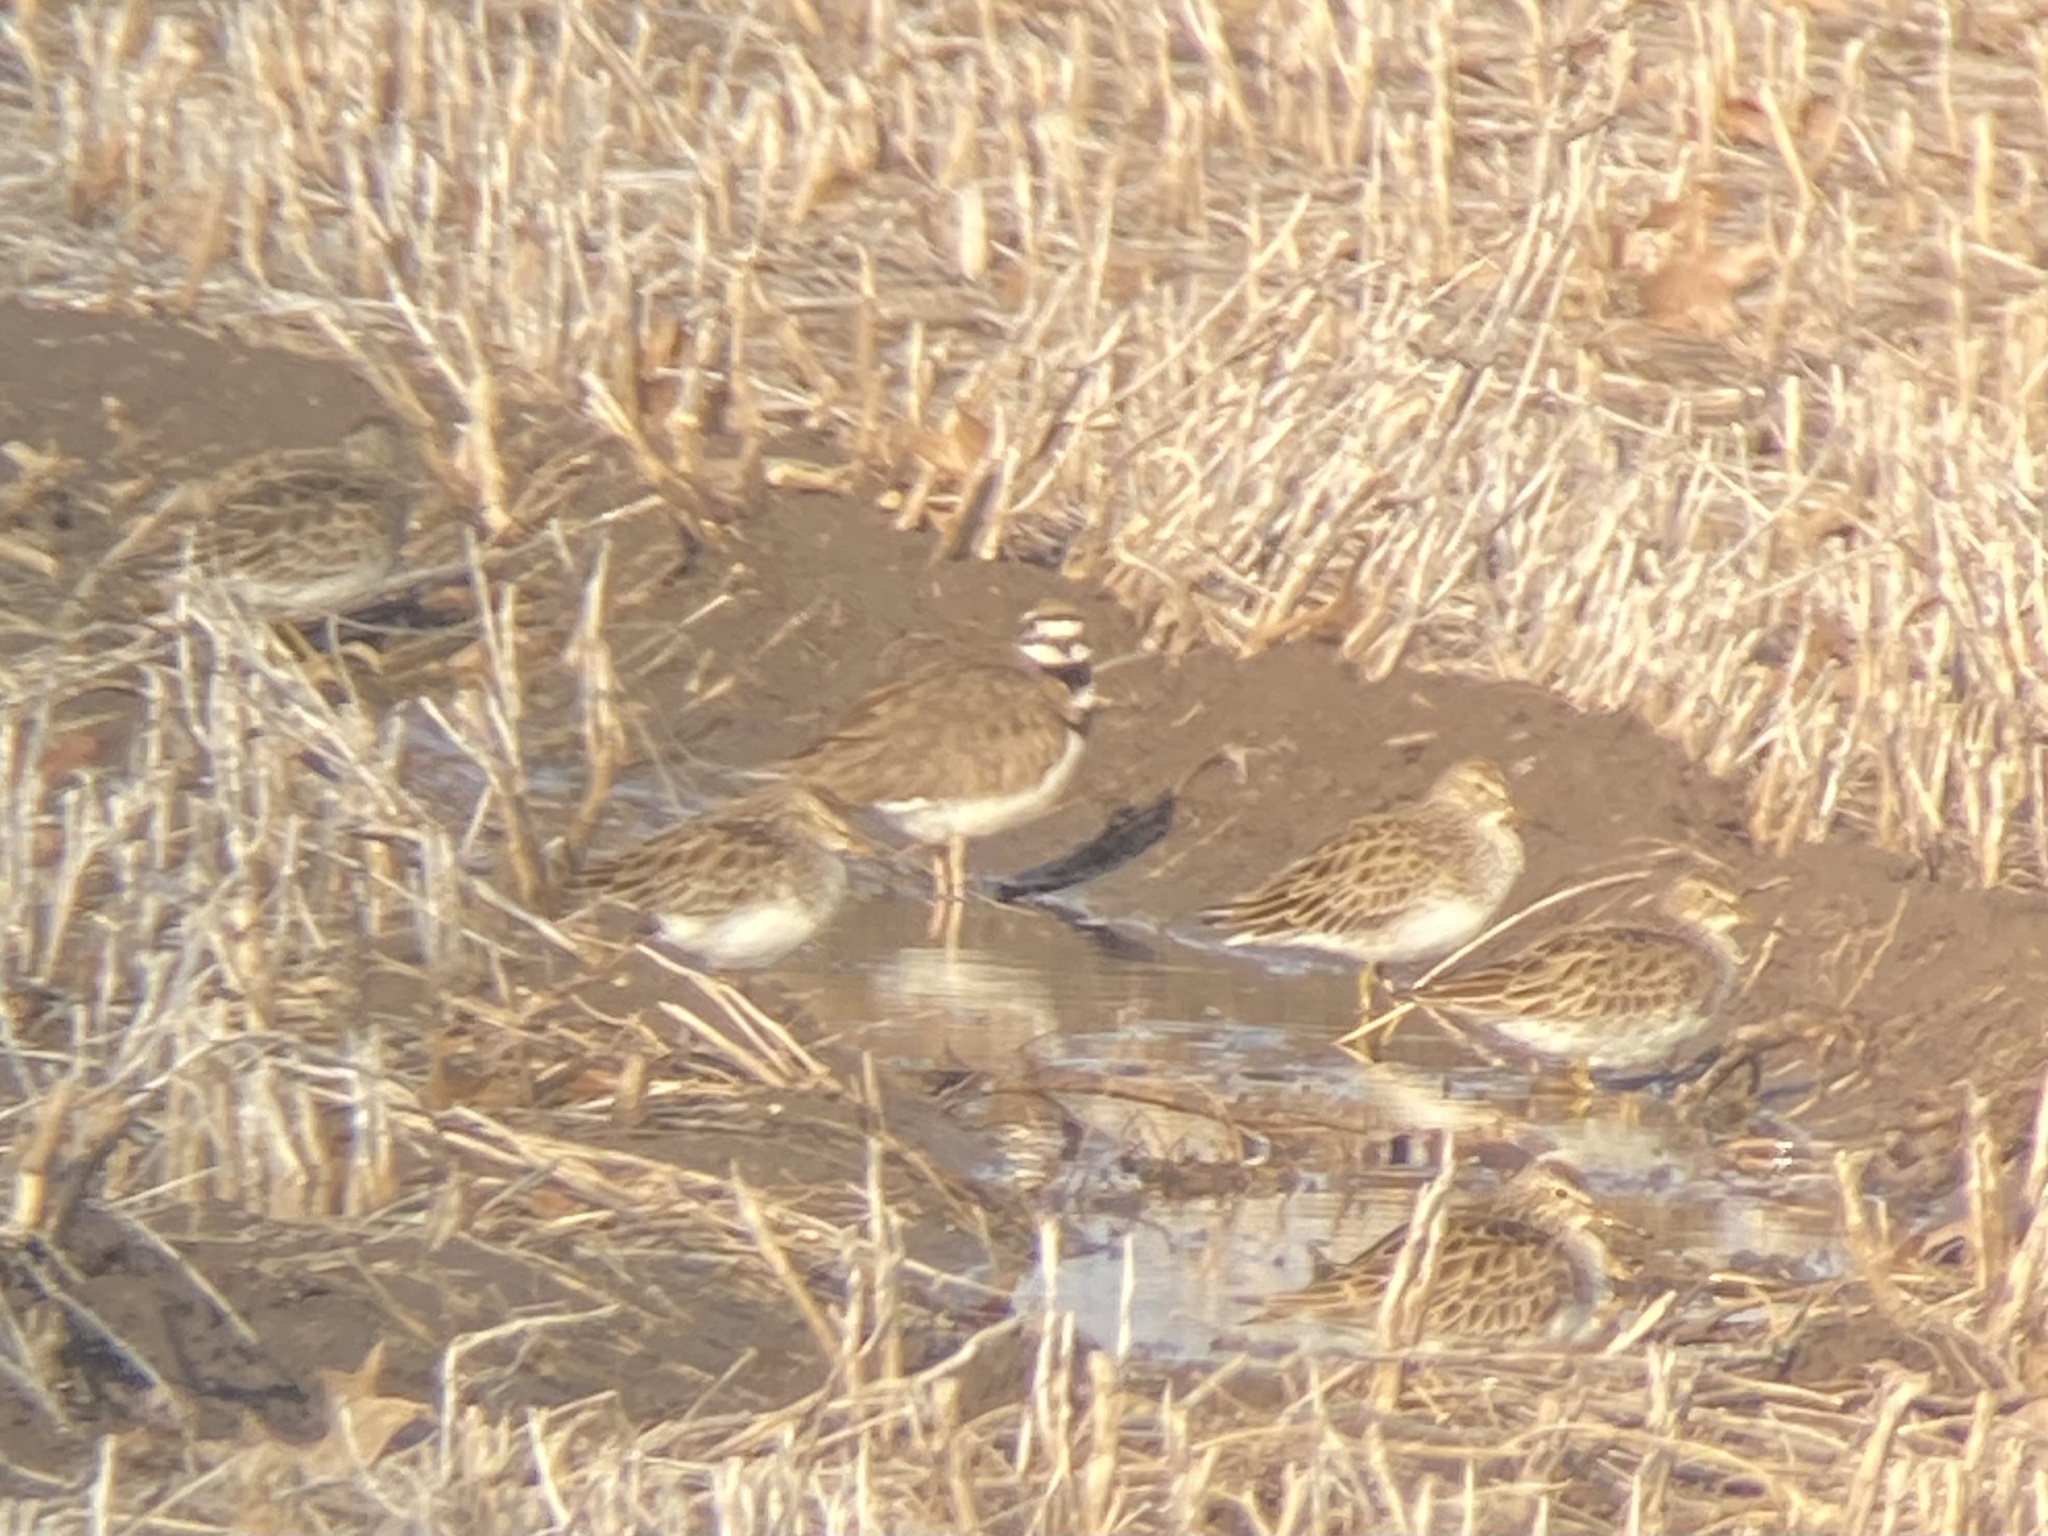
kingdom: Animalia
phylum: Chordata
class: Aves
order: Charadriiformes
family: Charadriidae
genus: Charadrius
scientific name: Charadrius vociferus
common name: Killdeer
